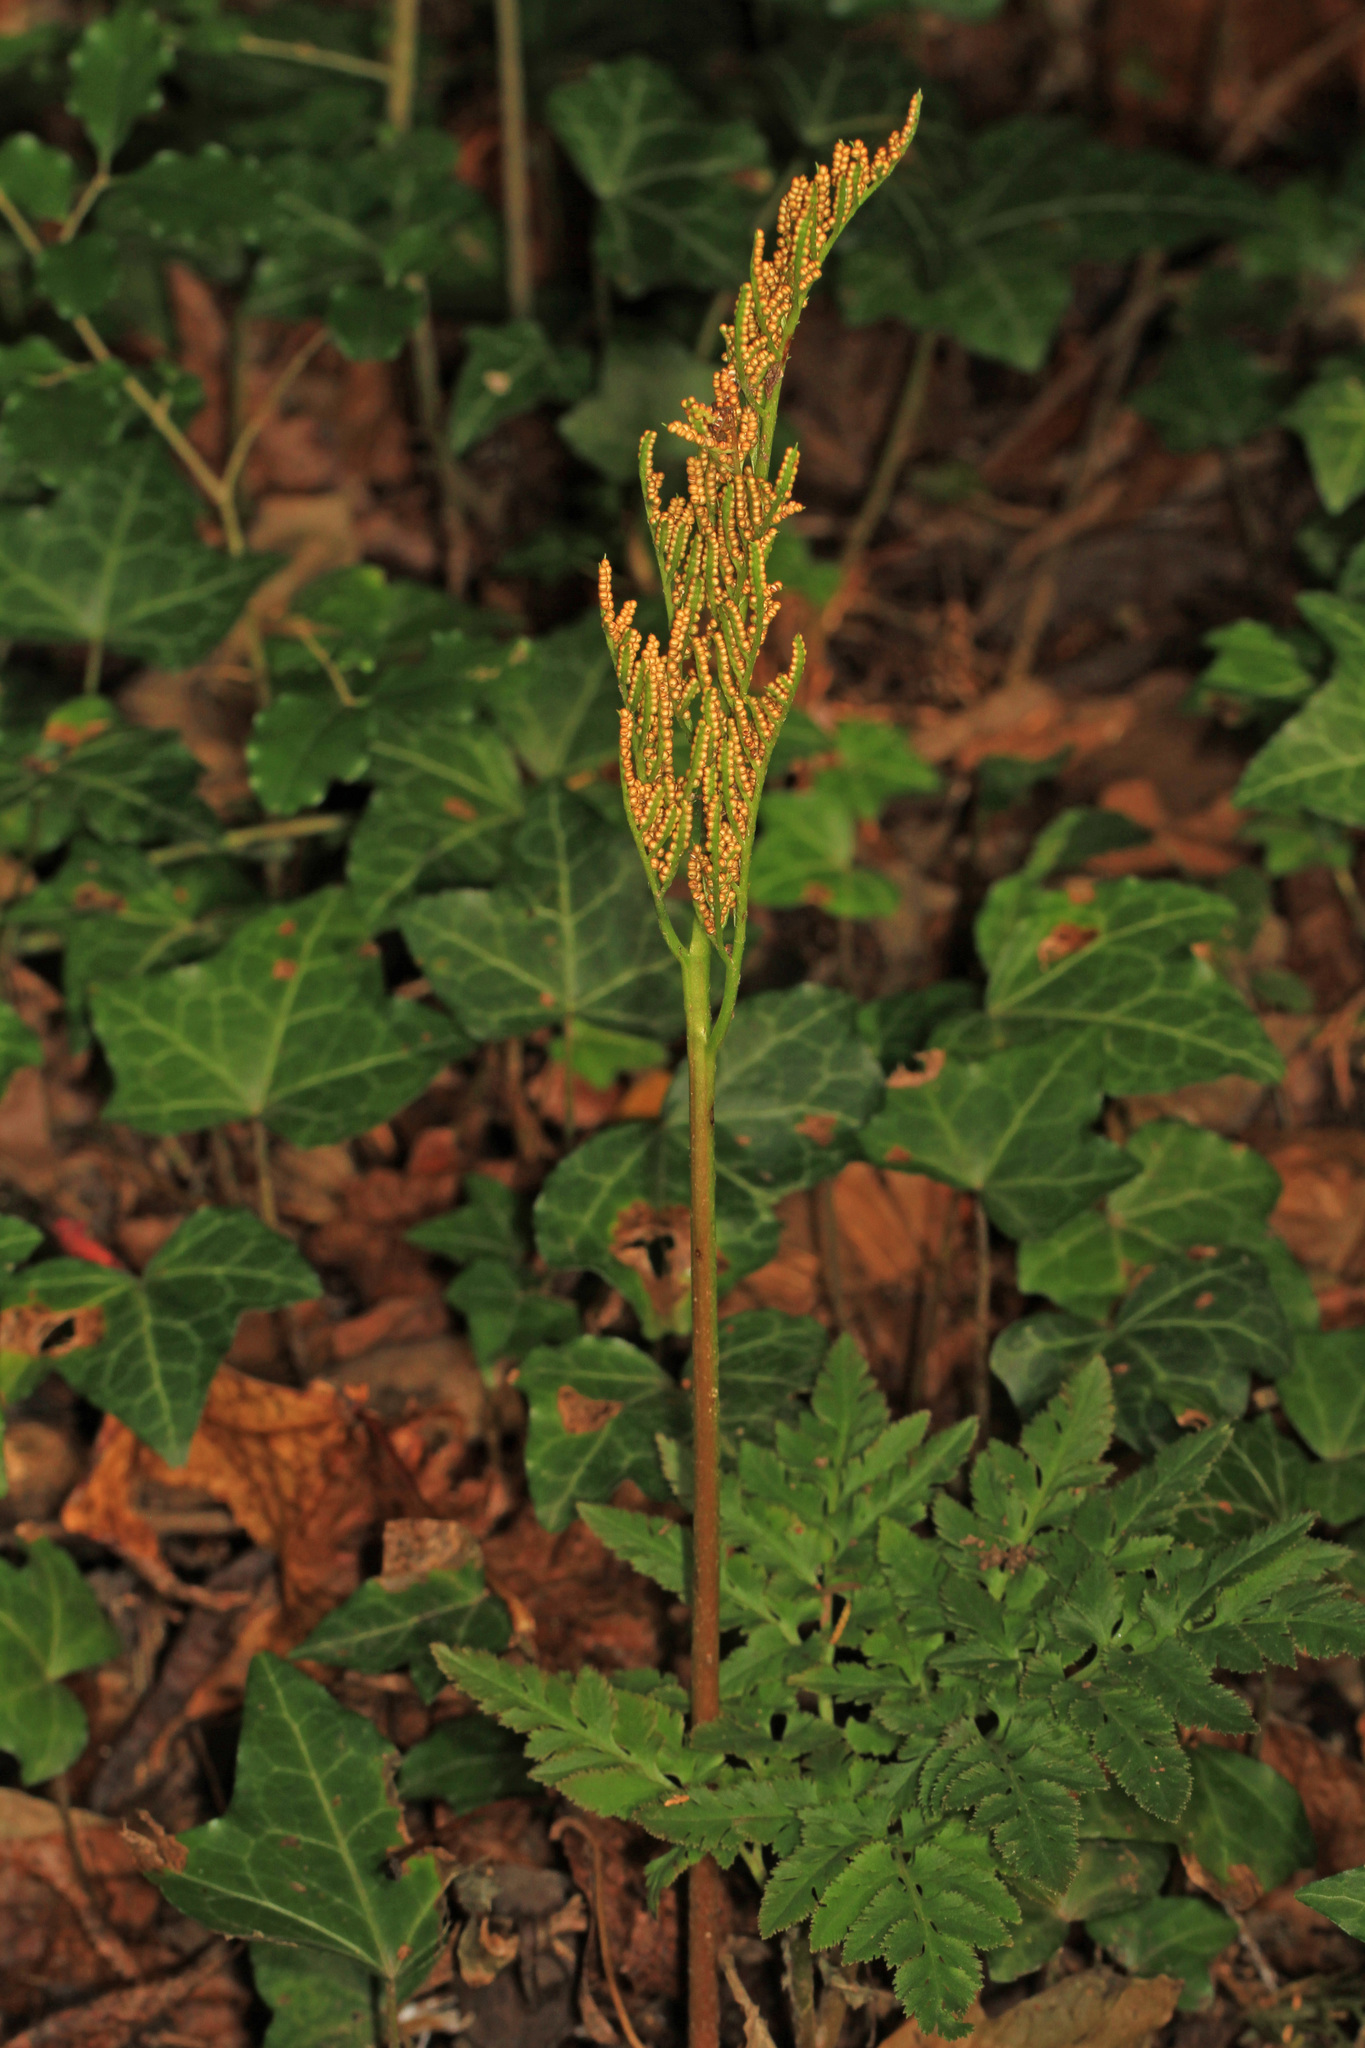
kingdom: Plantae
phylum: Tracheophyta
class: Polypodiopsida
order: Ophioglossales
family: Ophioglossaceae
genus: Sceptridium
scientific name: Sceptridium dissectum
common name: Cut-leaved grapefern
